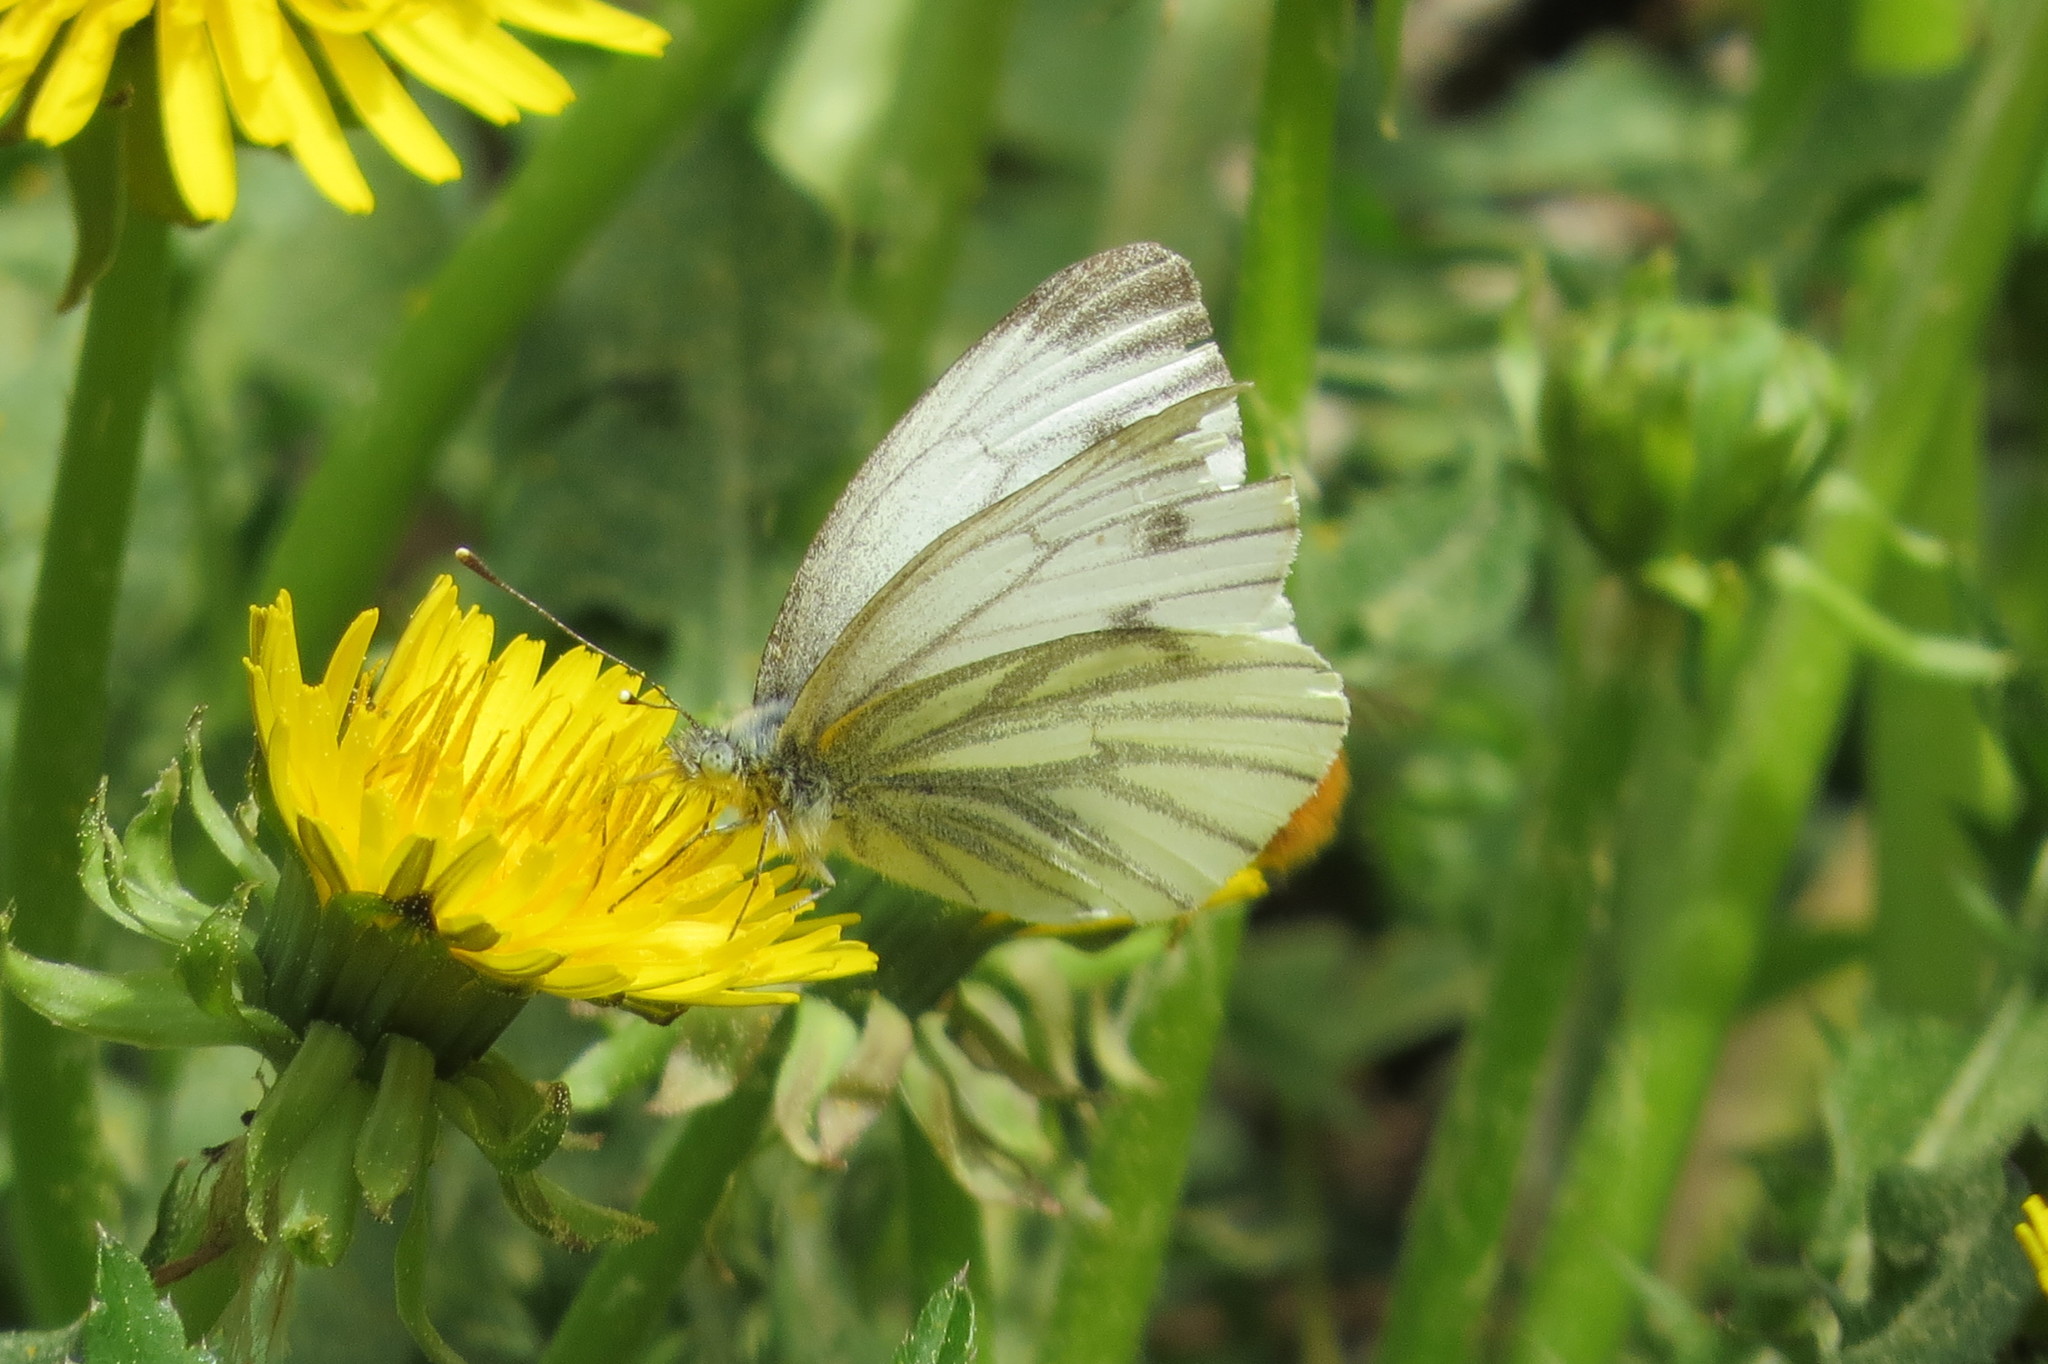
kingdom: Animalia
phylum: Arthropoda
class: Insecta
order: Lepidoptera
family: Pieridae
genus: Pieris
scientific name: Pieris napi
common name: Green-veined white
